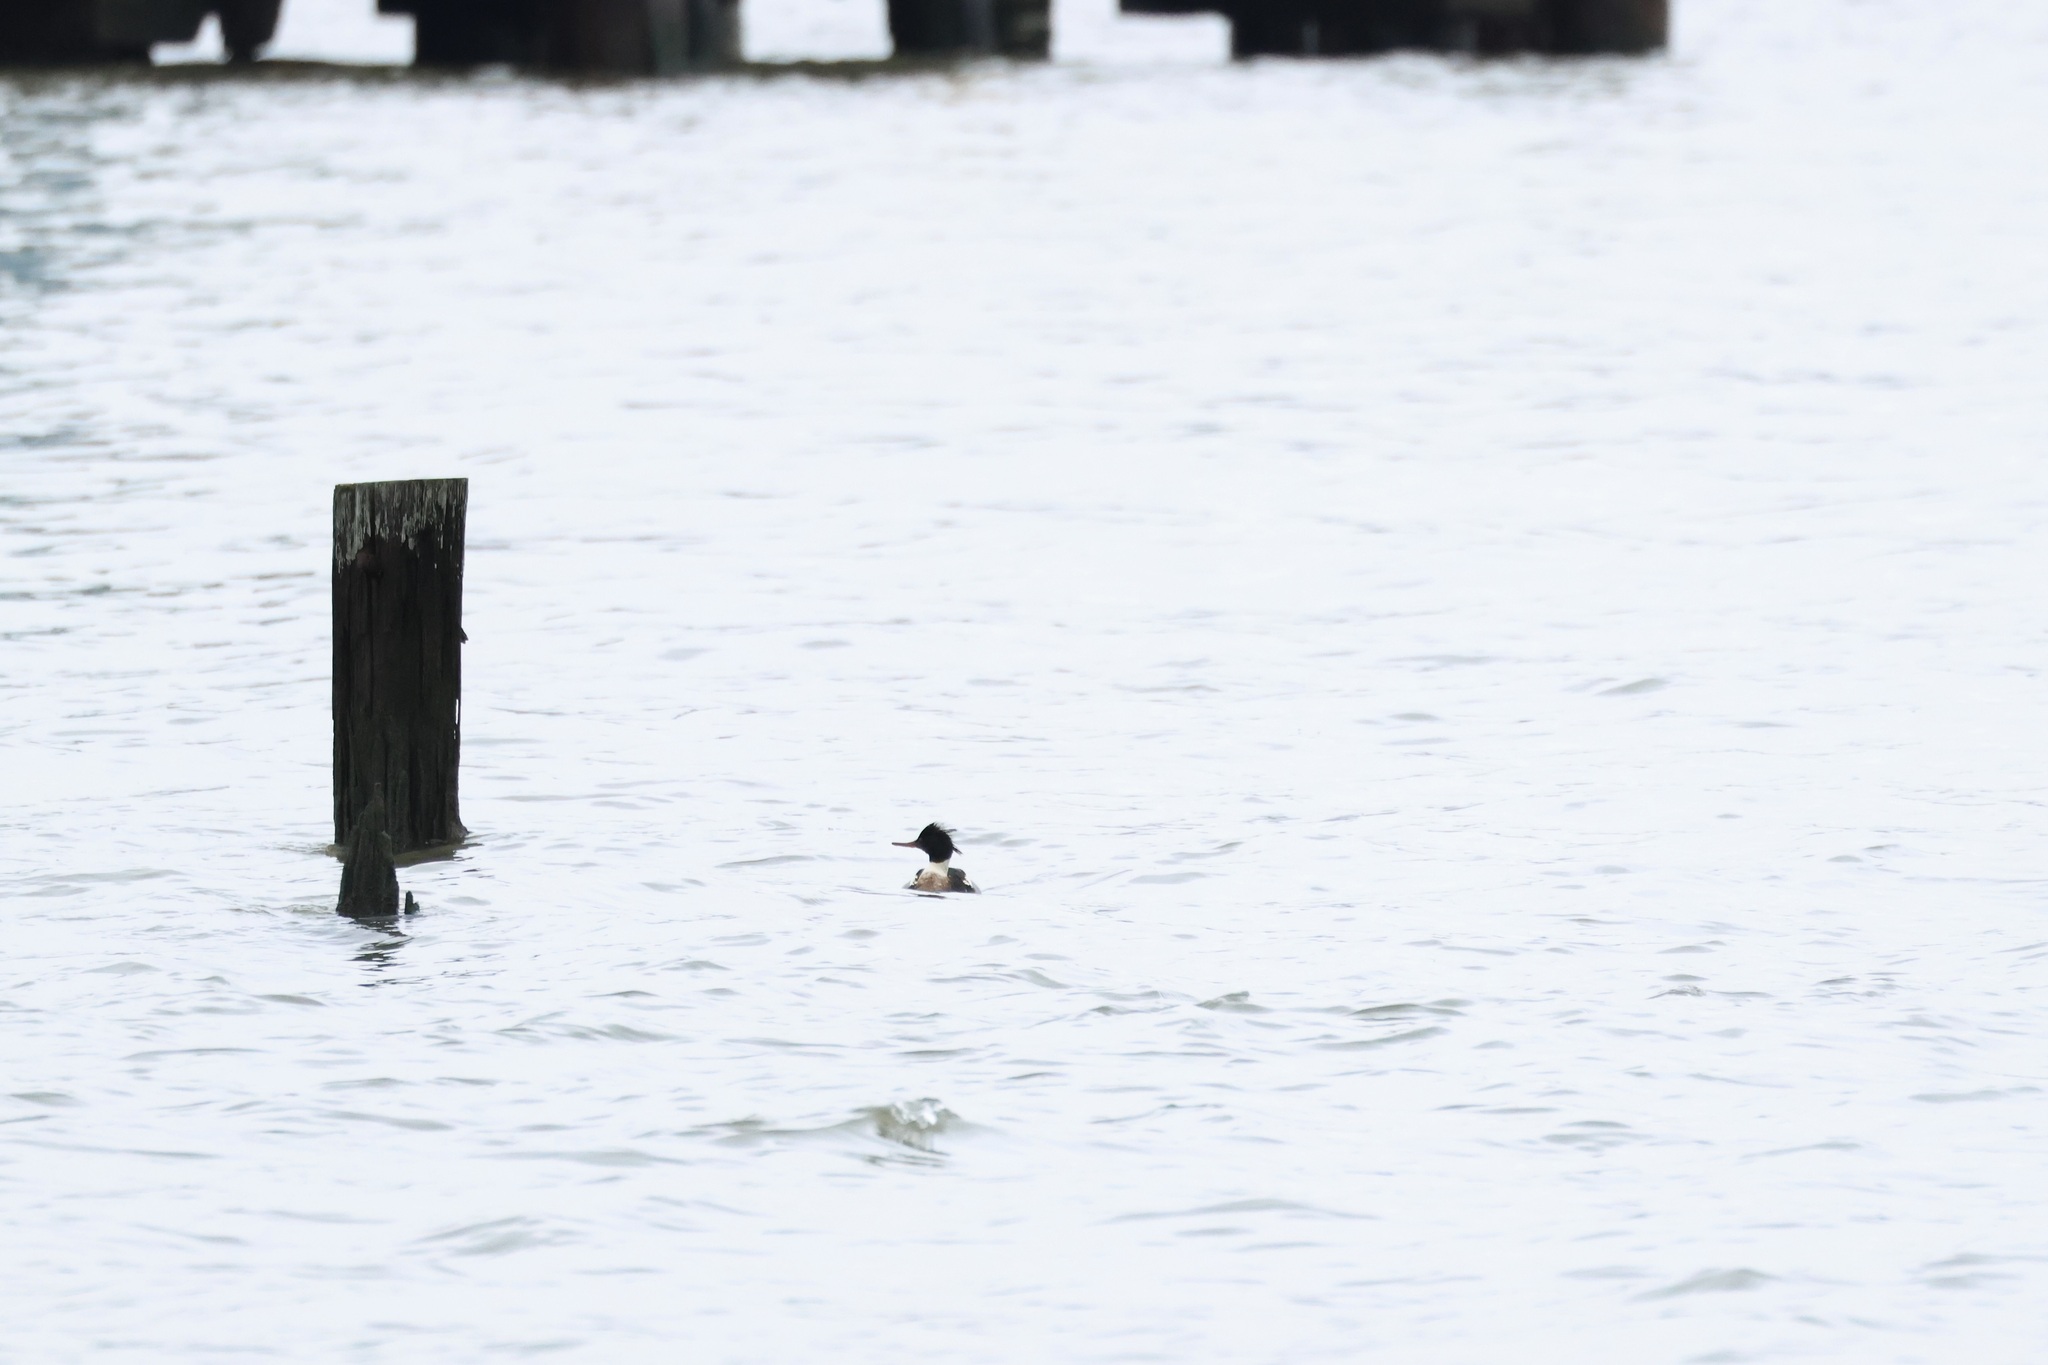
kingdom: Animalia
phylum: Chordata
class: Aves
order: Anseriformes
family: Anatidae
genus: Mergus
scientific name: Mergus serrator
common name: Red-breasted merganser
